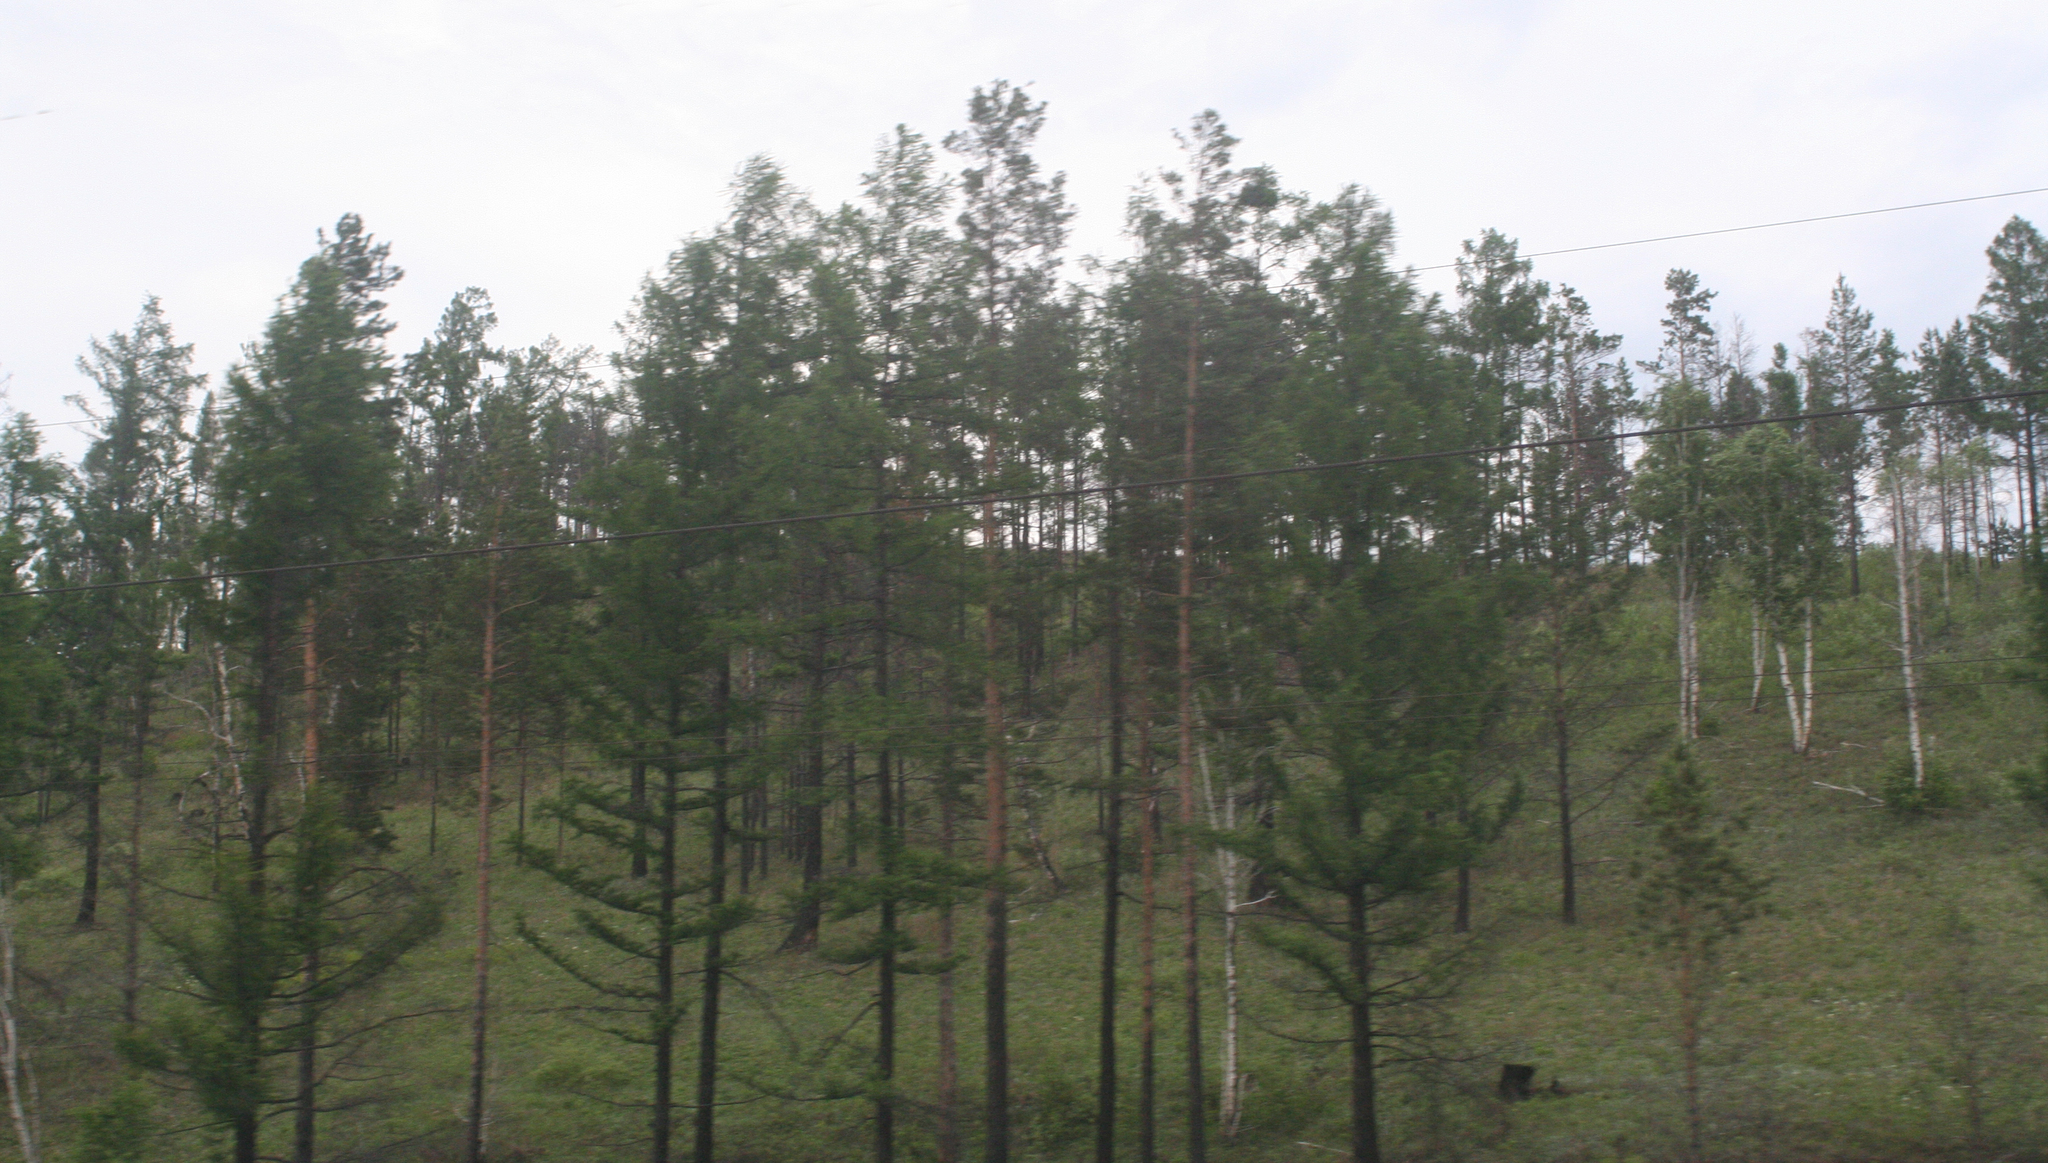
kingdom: Plantae
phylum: Tracheophyta
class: Pinopsida
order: Pinales
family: Pinaceae
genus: Larix
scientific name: Larix sibirica
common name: Siberian larch
